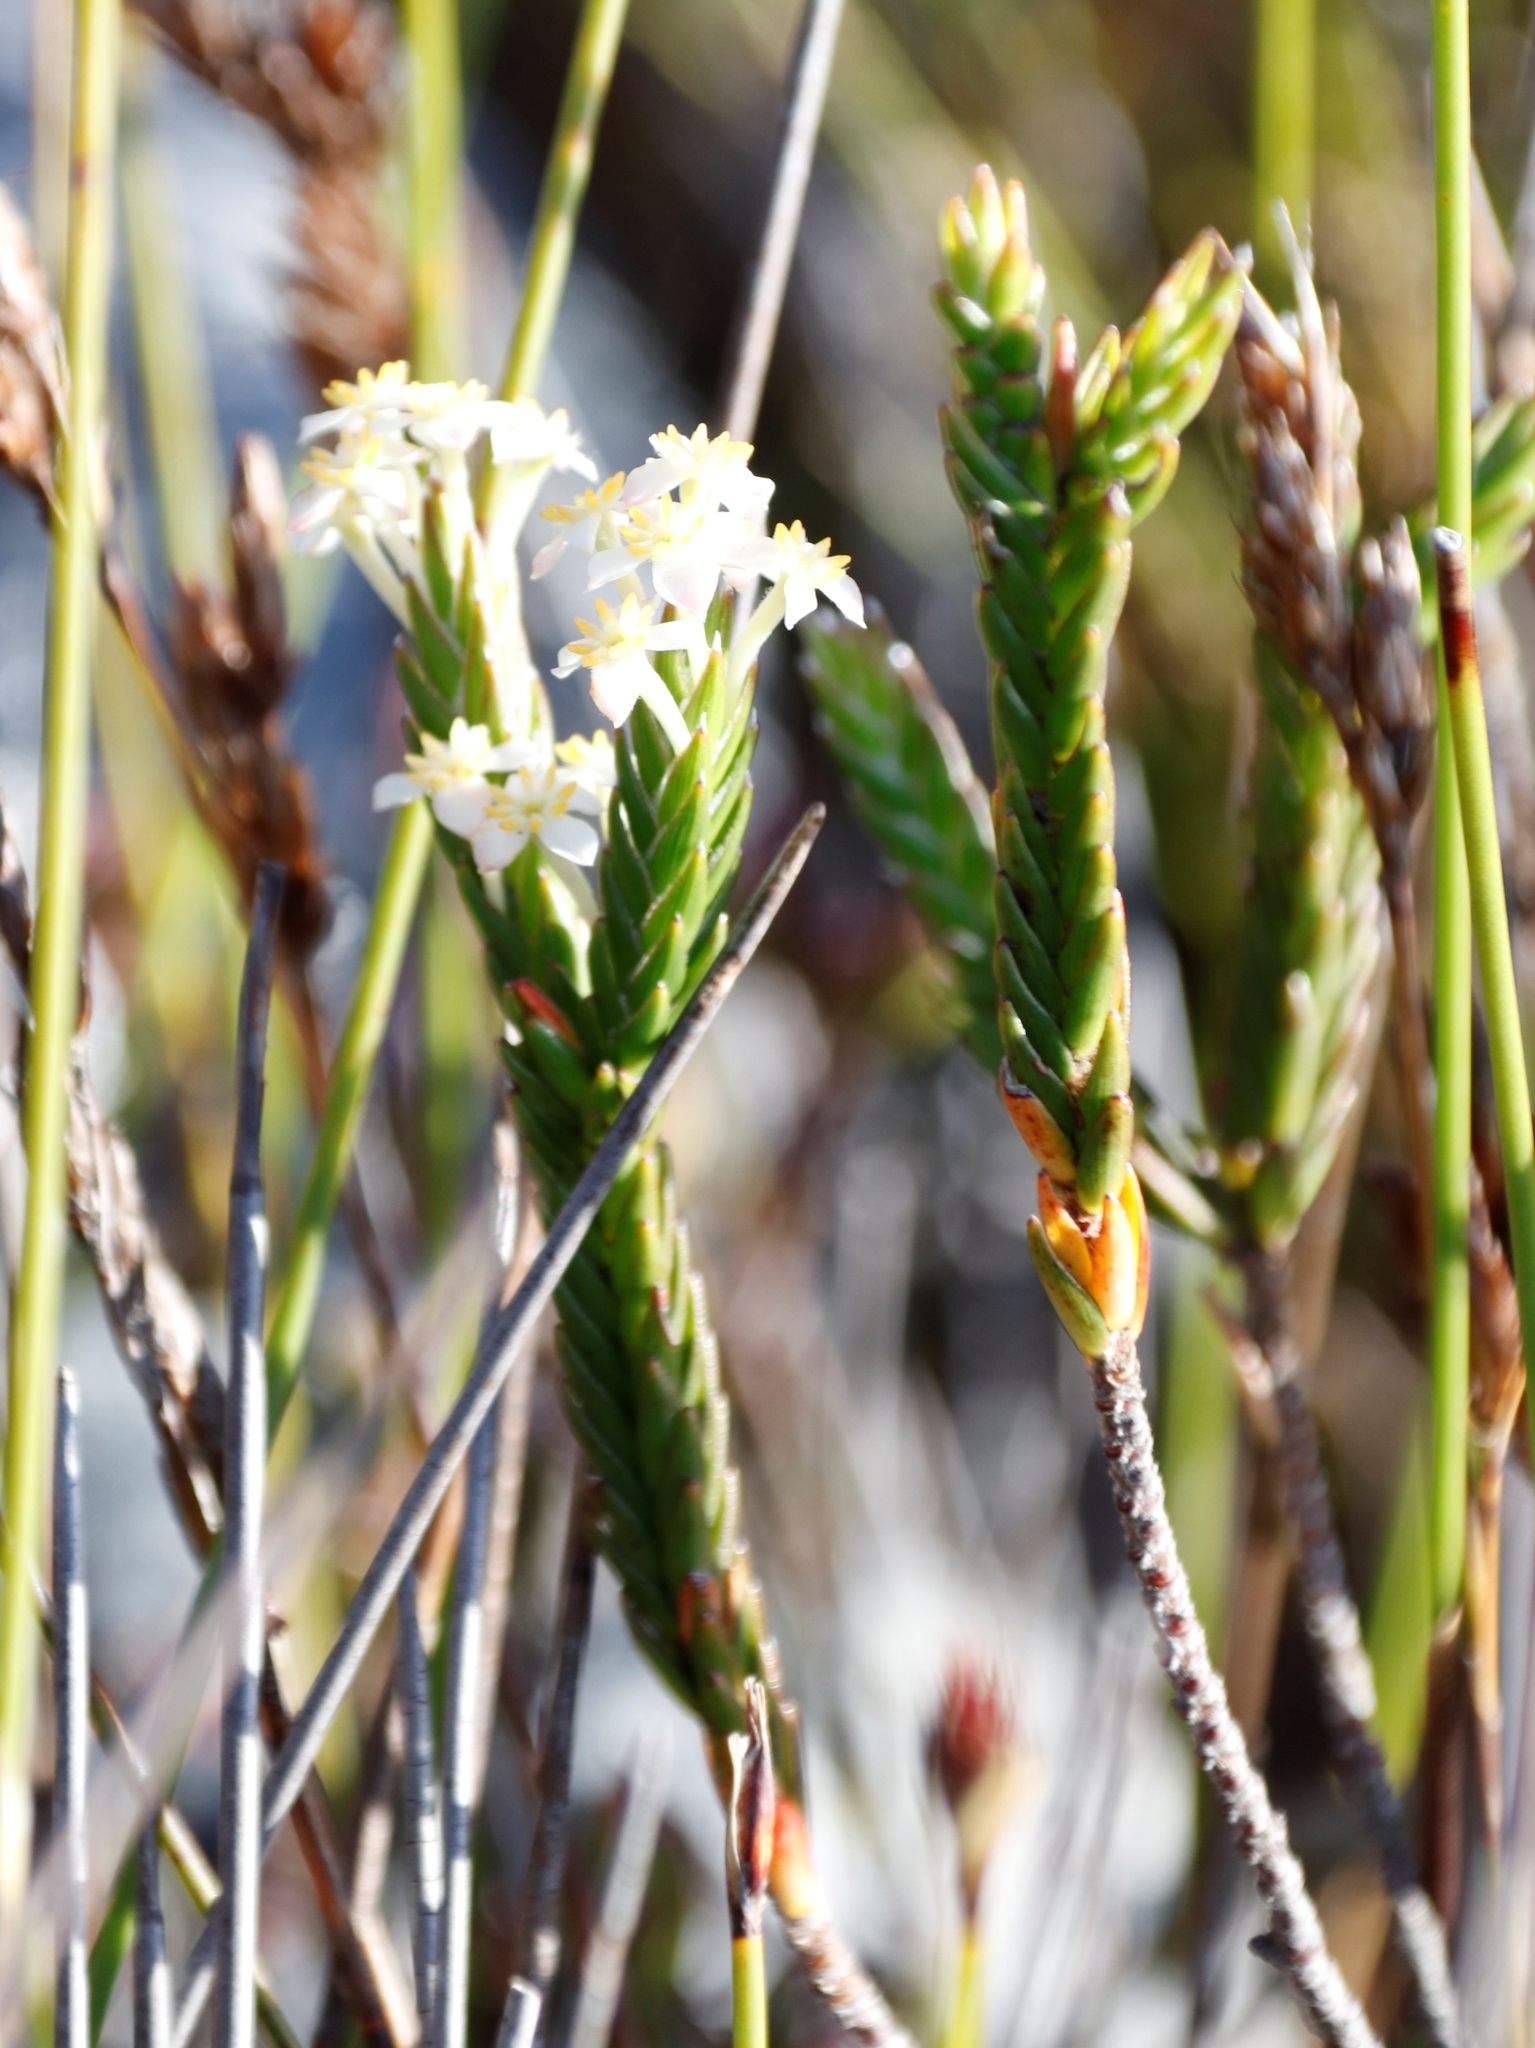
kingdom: Plantae
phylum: Tracheophyta
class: Magnoliopsida
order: Malvales
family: Thymelaeaceae
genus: Struthiola
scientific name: Struthiola ciliata
